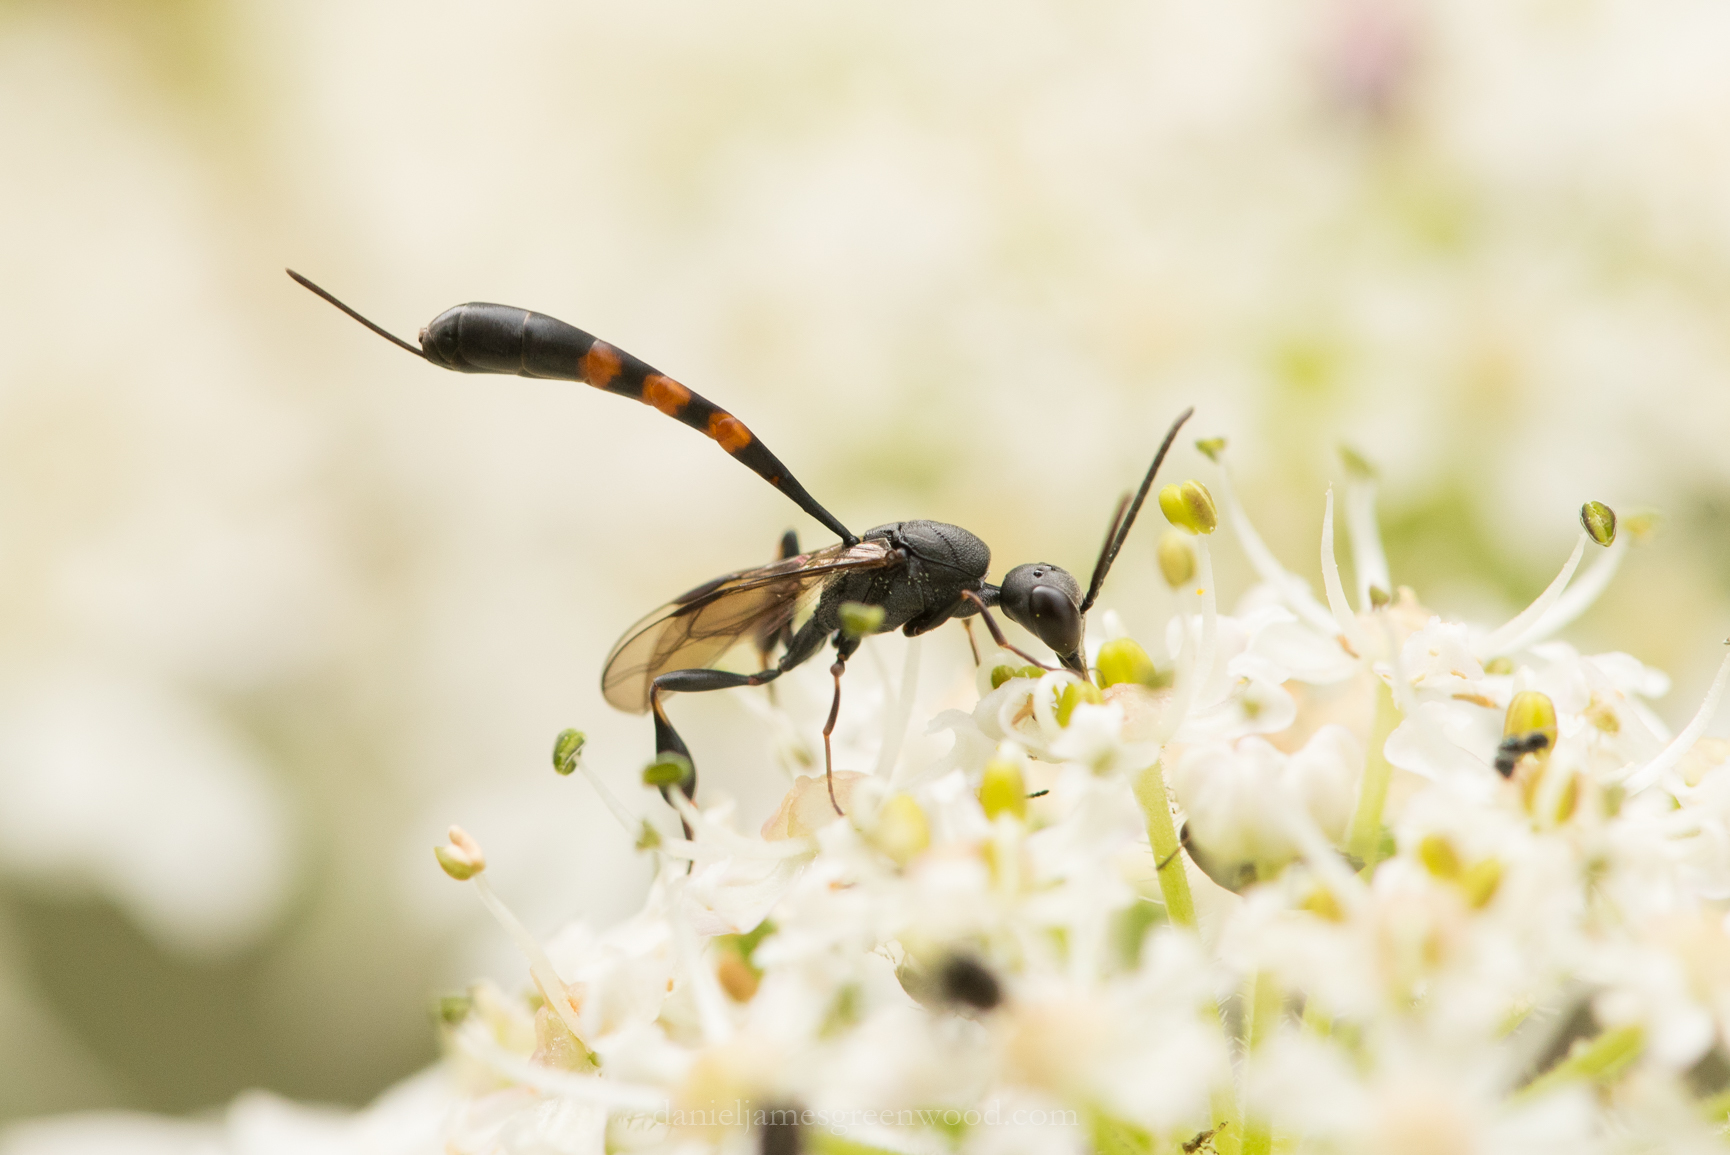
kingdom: Animalia
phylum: Arthropoda
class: Insecta
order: Hymenoptera
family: Gasteruptiidae
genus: Gasteruption
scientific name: Gasteruption assectator
